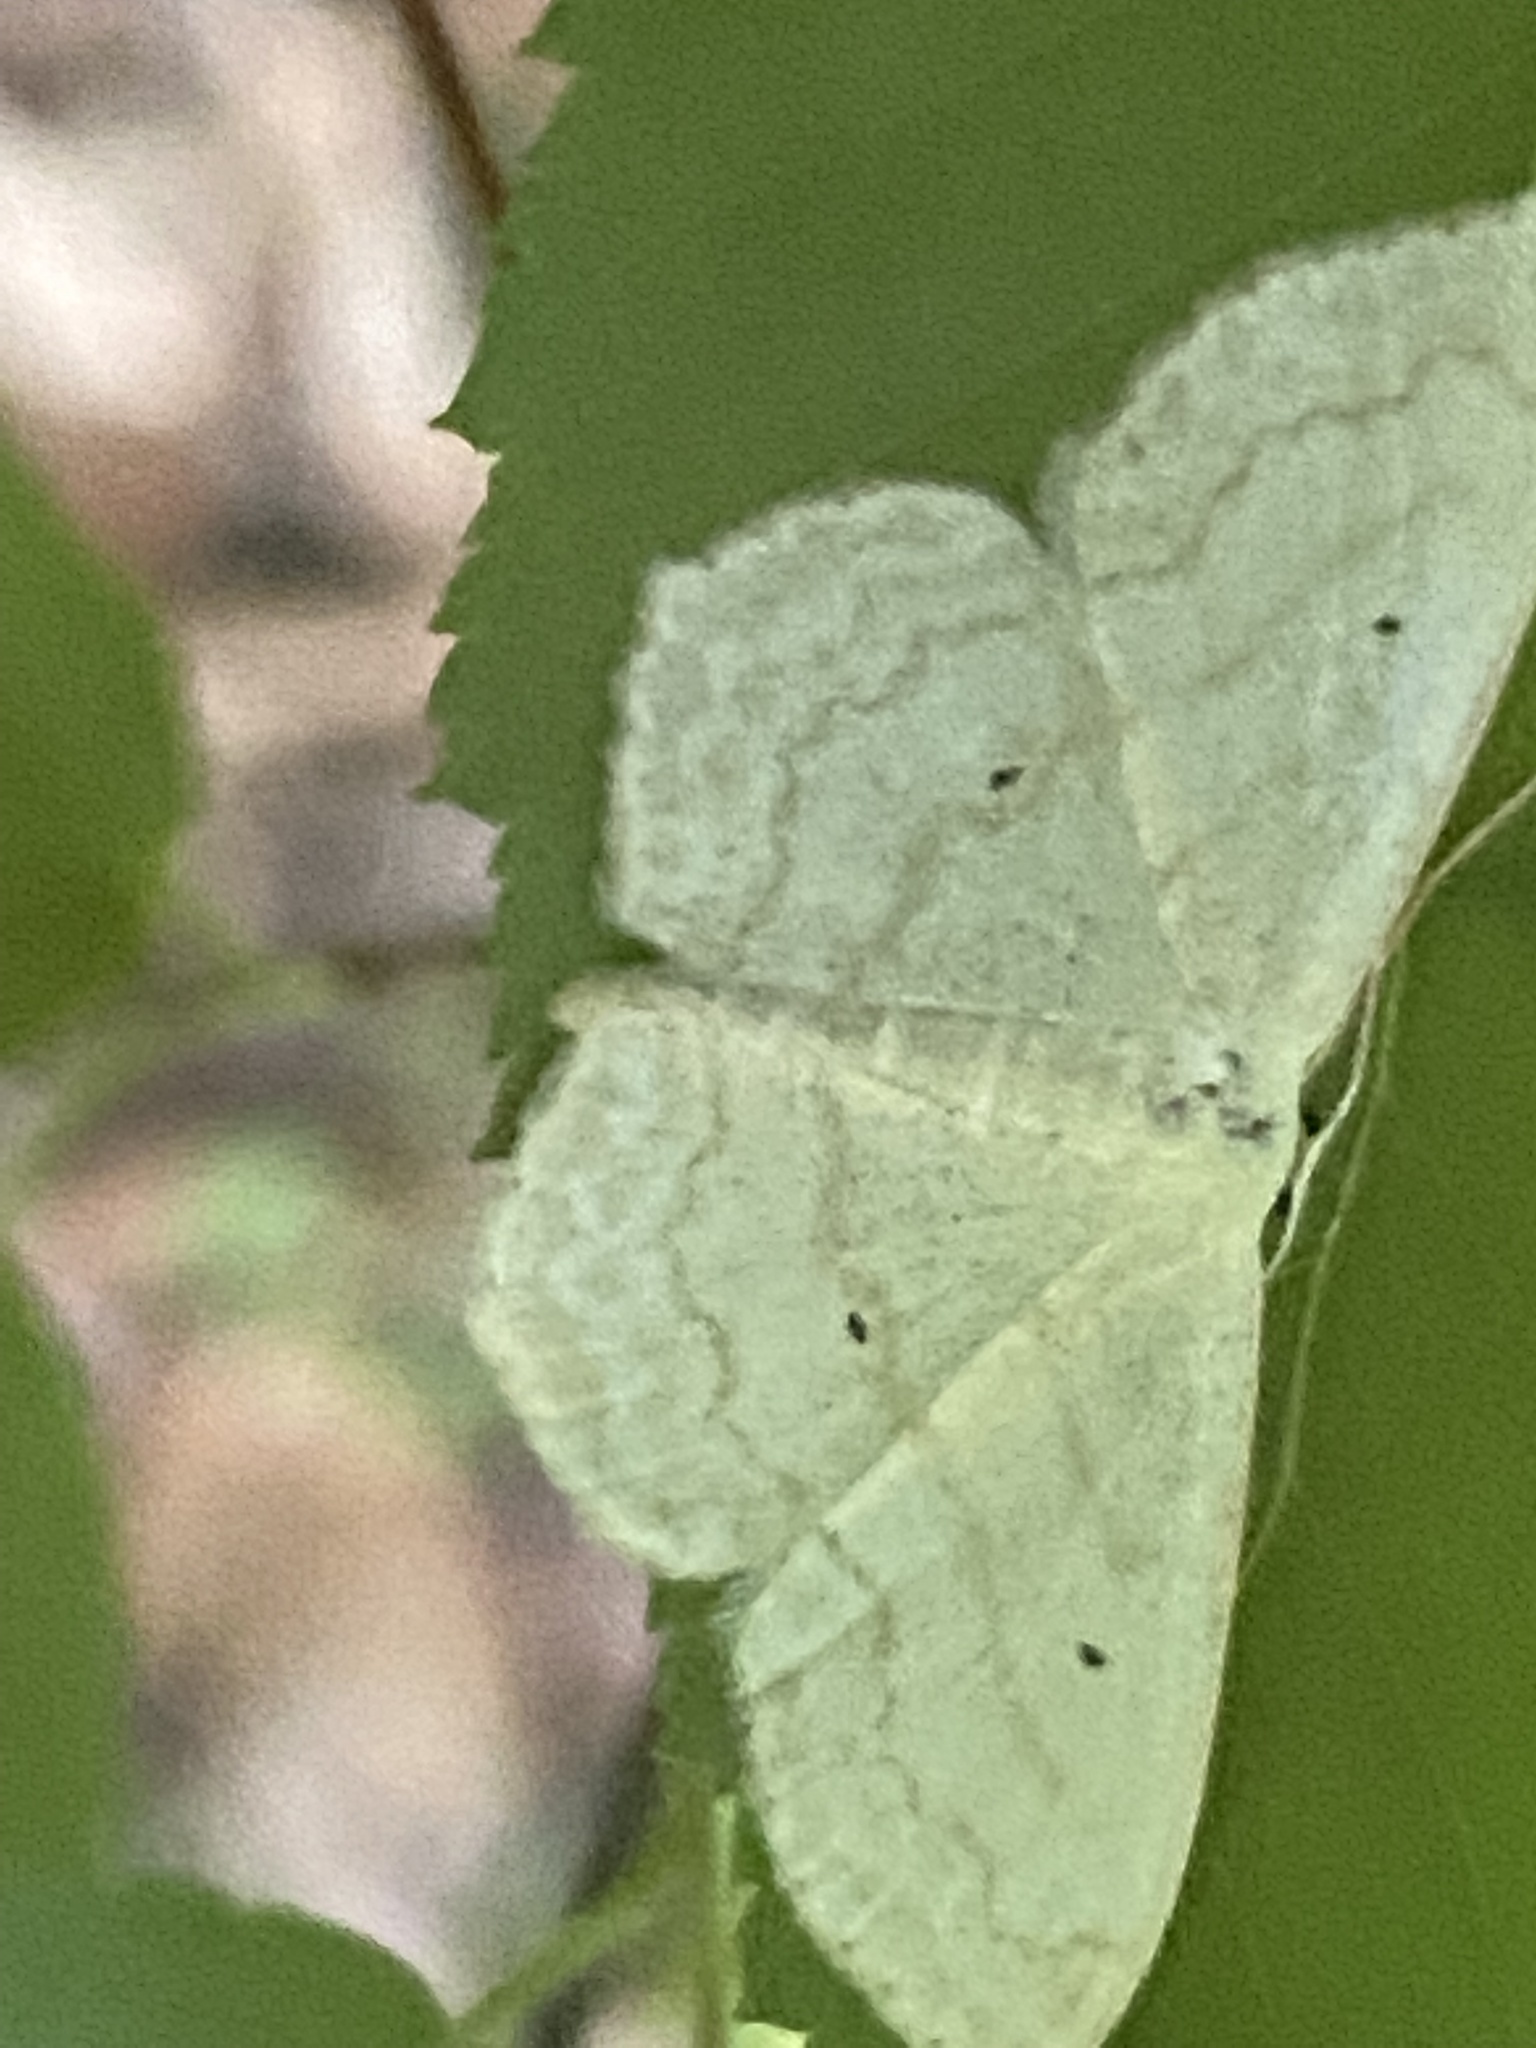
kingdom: Animalia
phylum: Arthropoda
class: Insecta
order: Lepidoptera
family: Geometridae
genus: Scopula
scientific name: Scopula limboundata
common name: Large lace border
